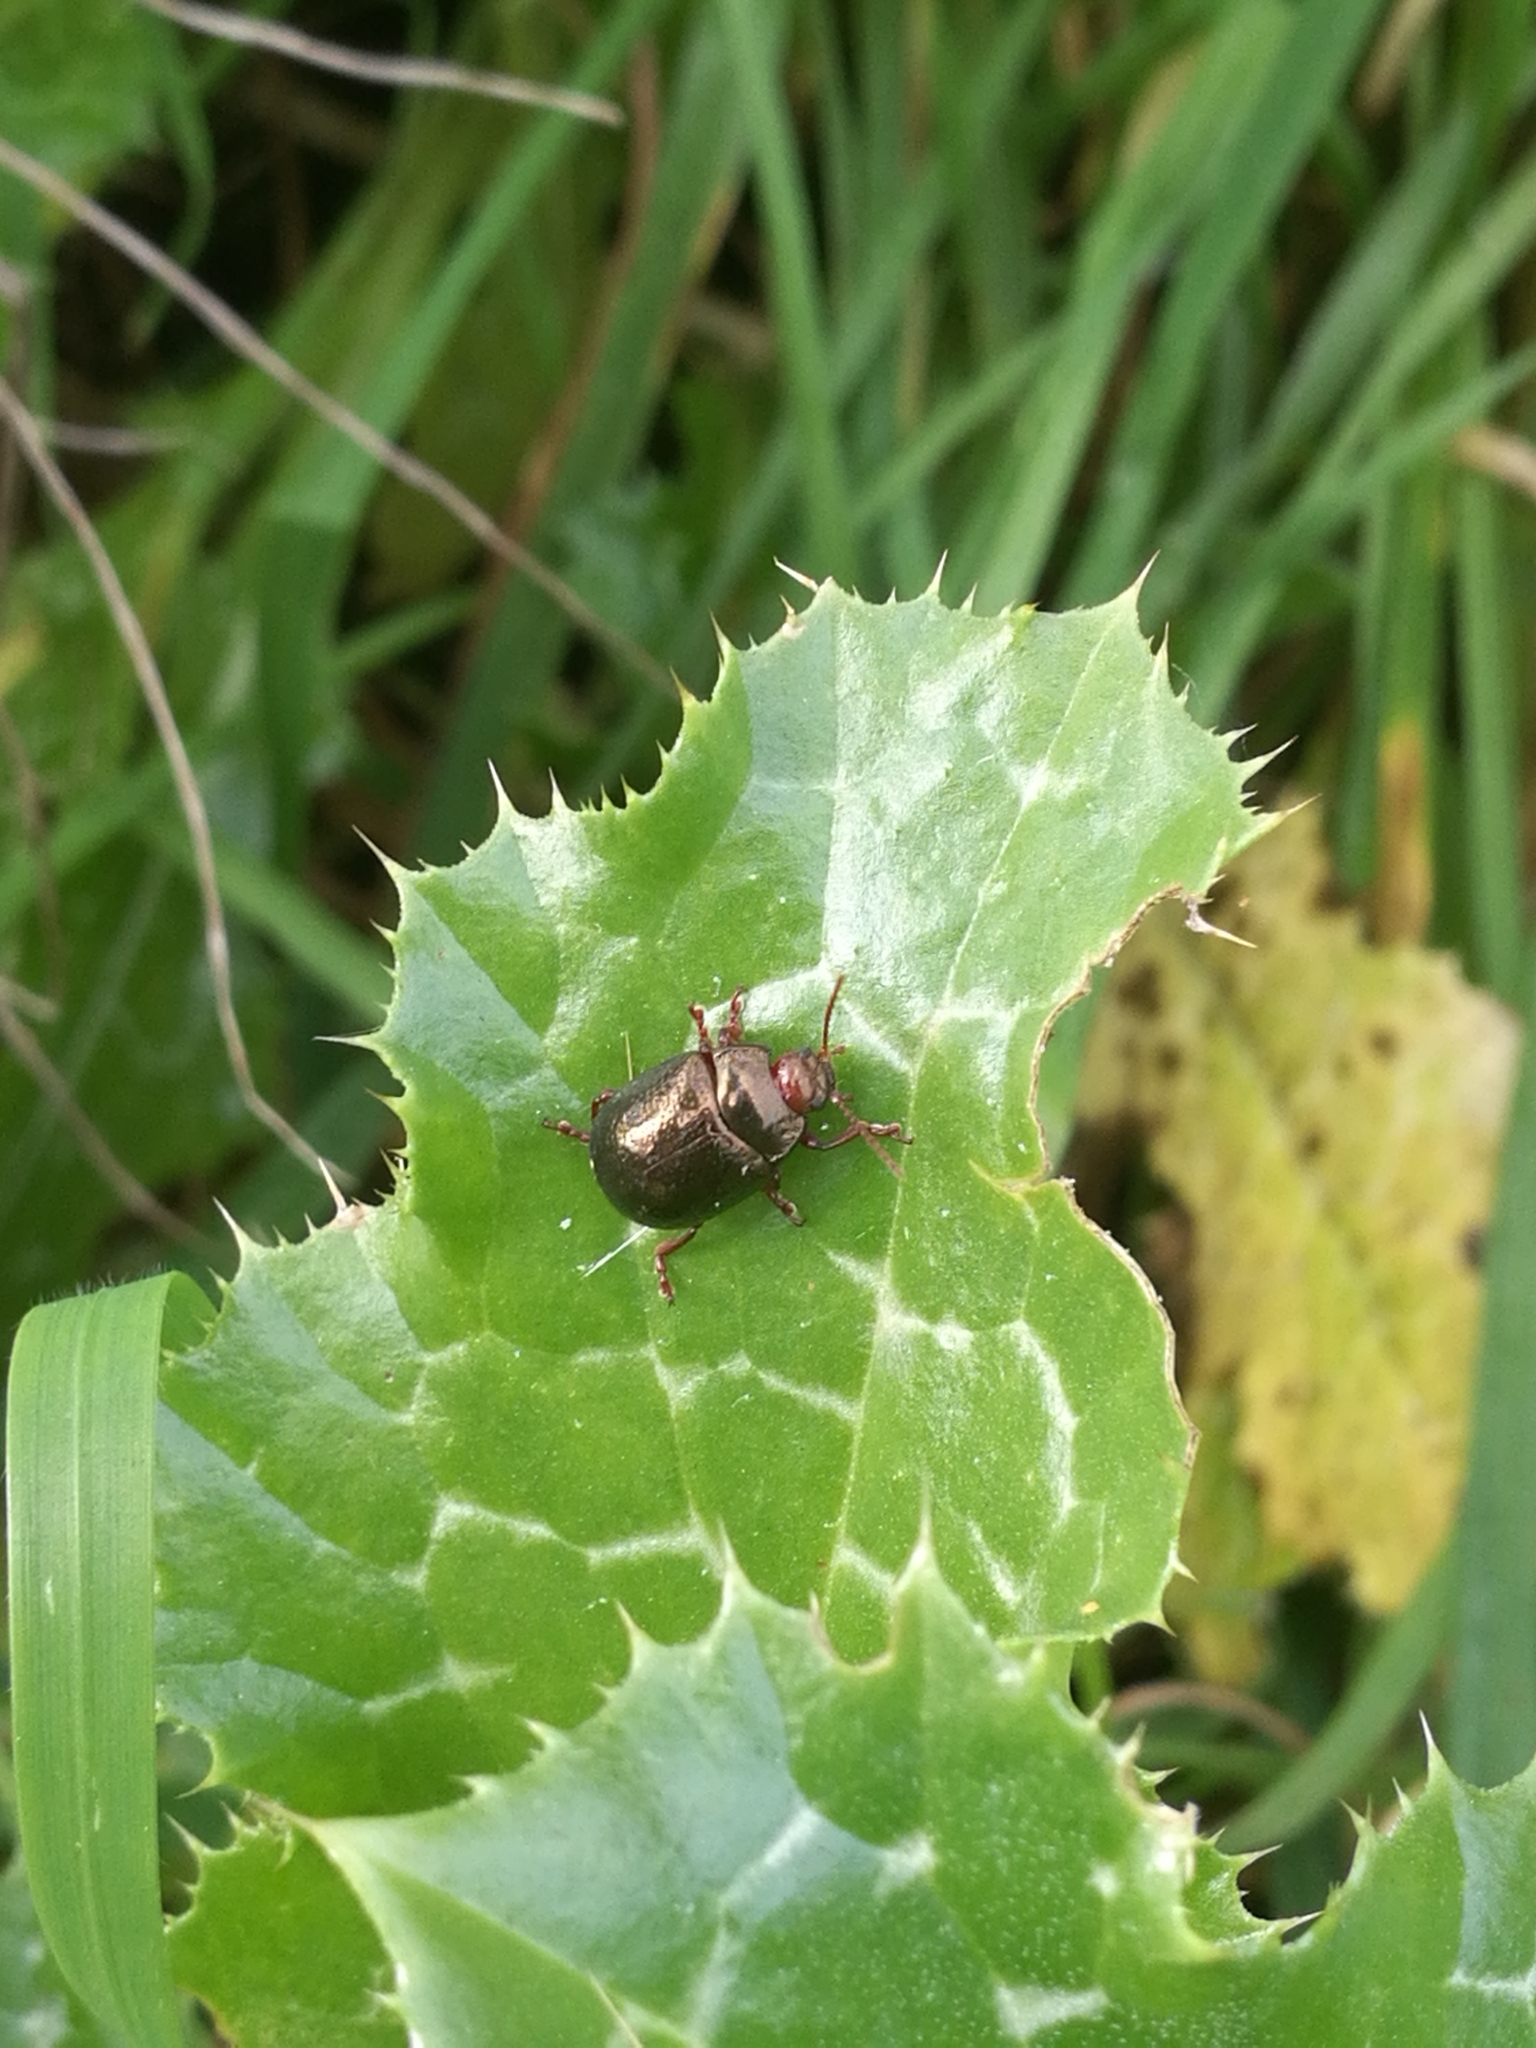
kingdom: Animalia
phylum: Arthropoda
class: Insecta
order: Coleoptera
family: Chrysomelidae
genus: Chrysolina
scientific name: Chrysolina bankii
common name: Leaf beetle
